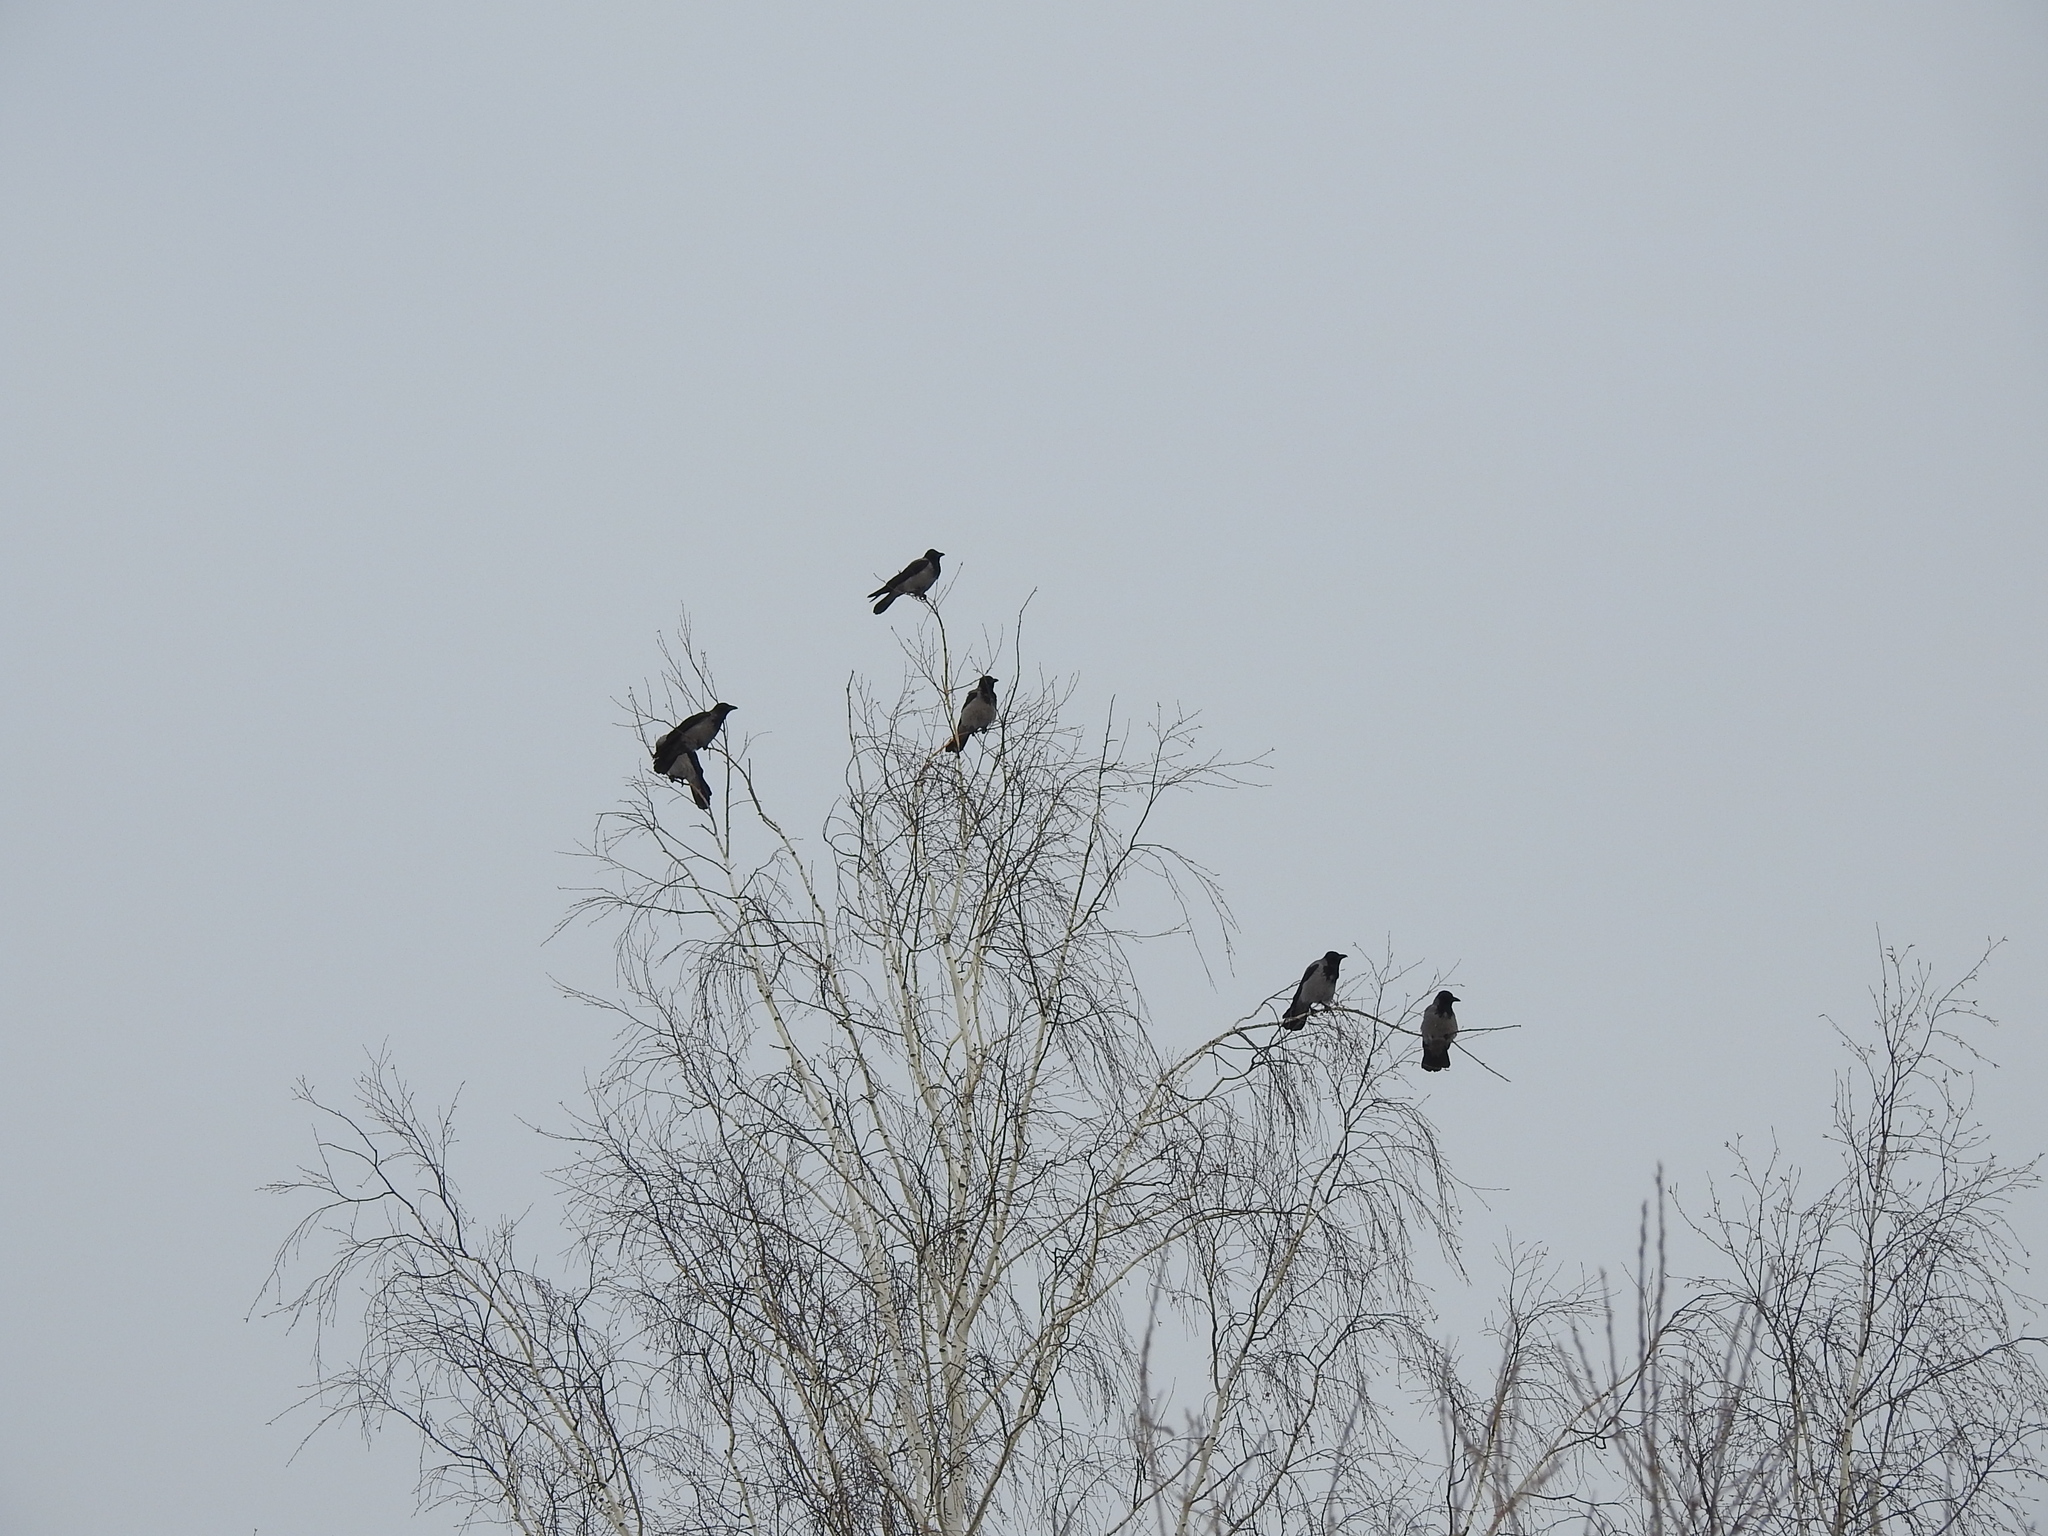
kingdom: Animalia
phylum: Chordata
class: Aves
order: Passeriformes
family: Corvidae
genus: Corvus
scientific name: Corvus cornix
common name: Hooded crow
